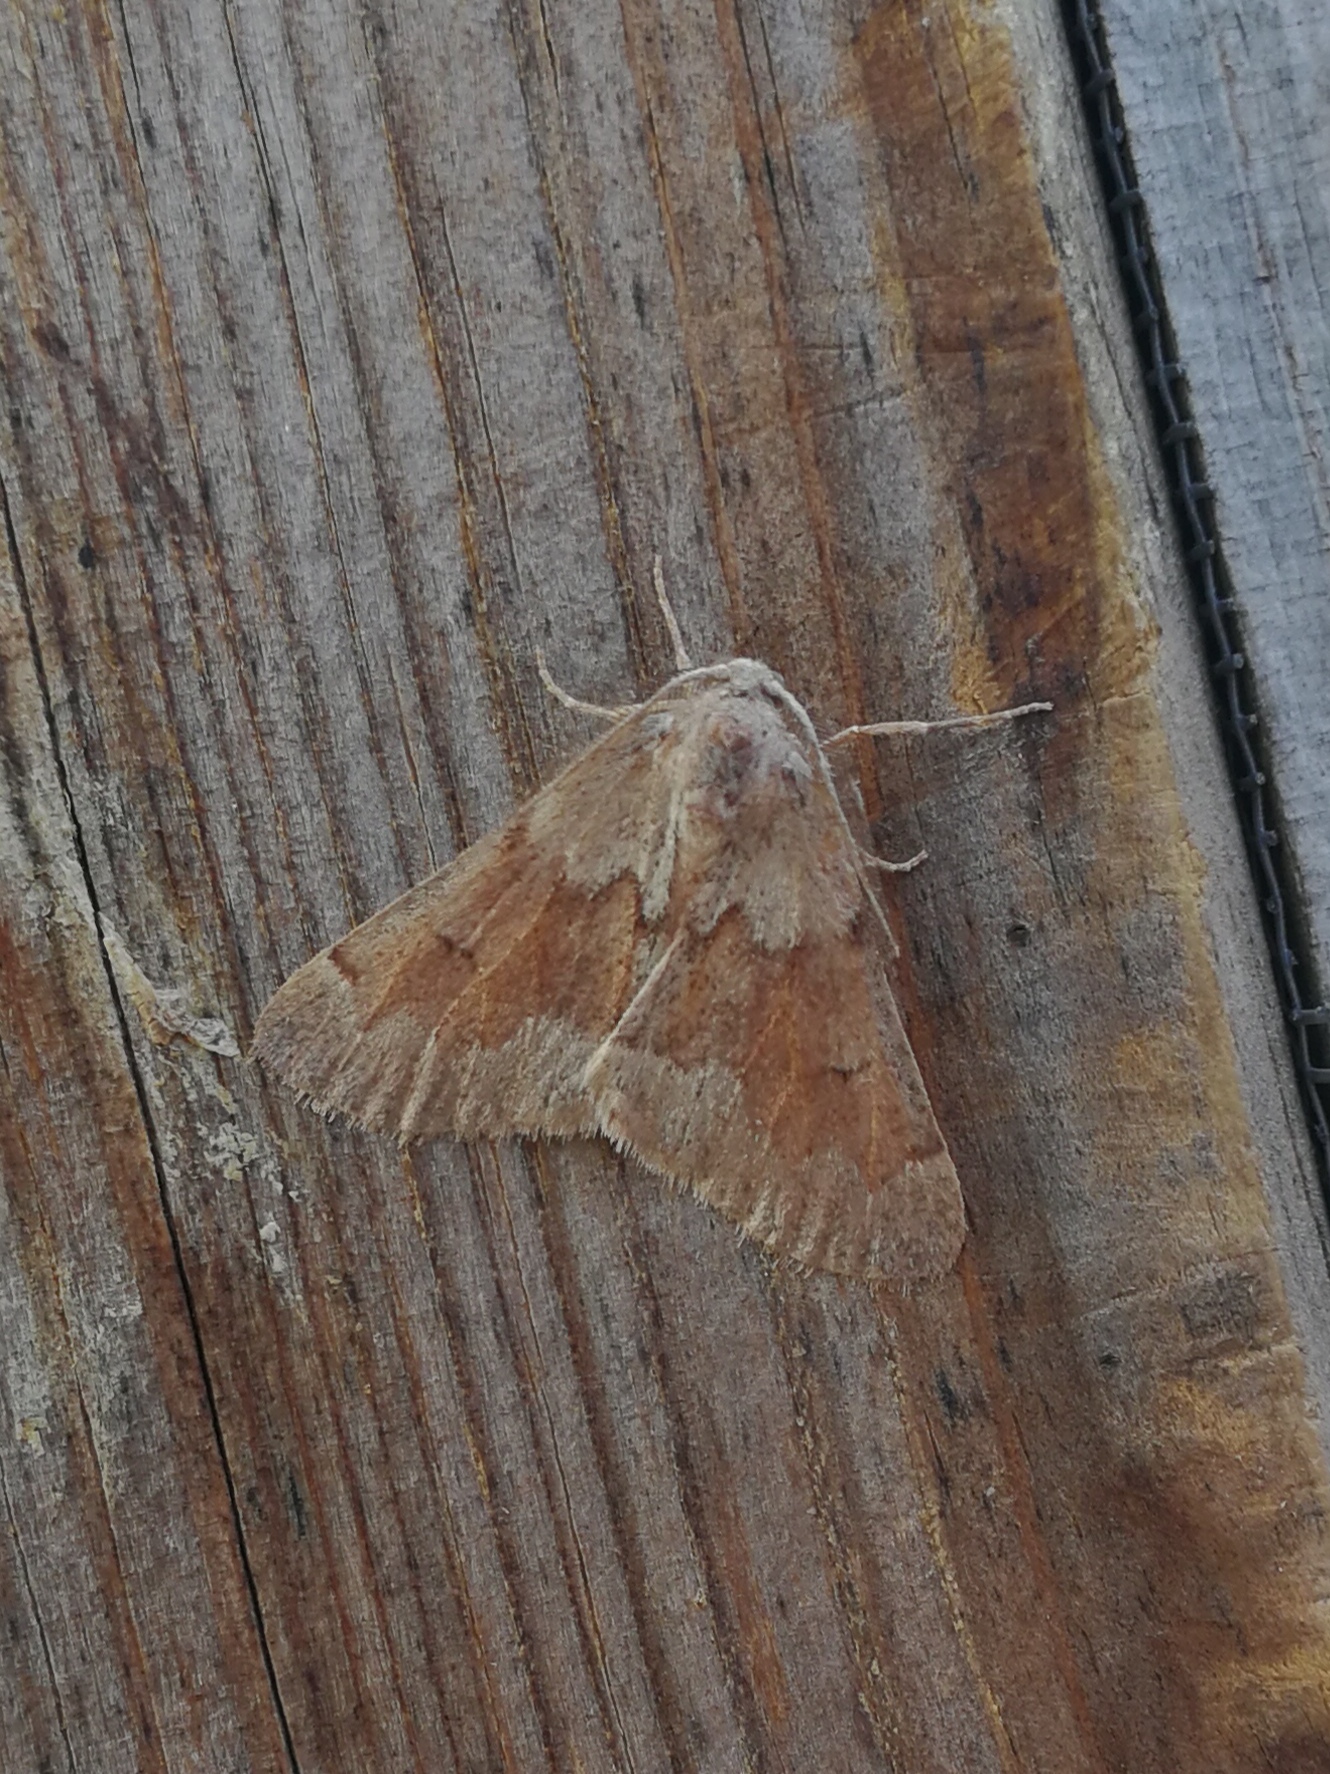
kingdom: Animalia
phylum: Arthropoda
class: Insecta
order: Lepidoptera
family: Geometridae
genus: Adalbertia
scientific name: Adalbertia castiliaria
